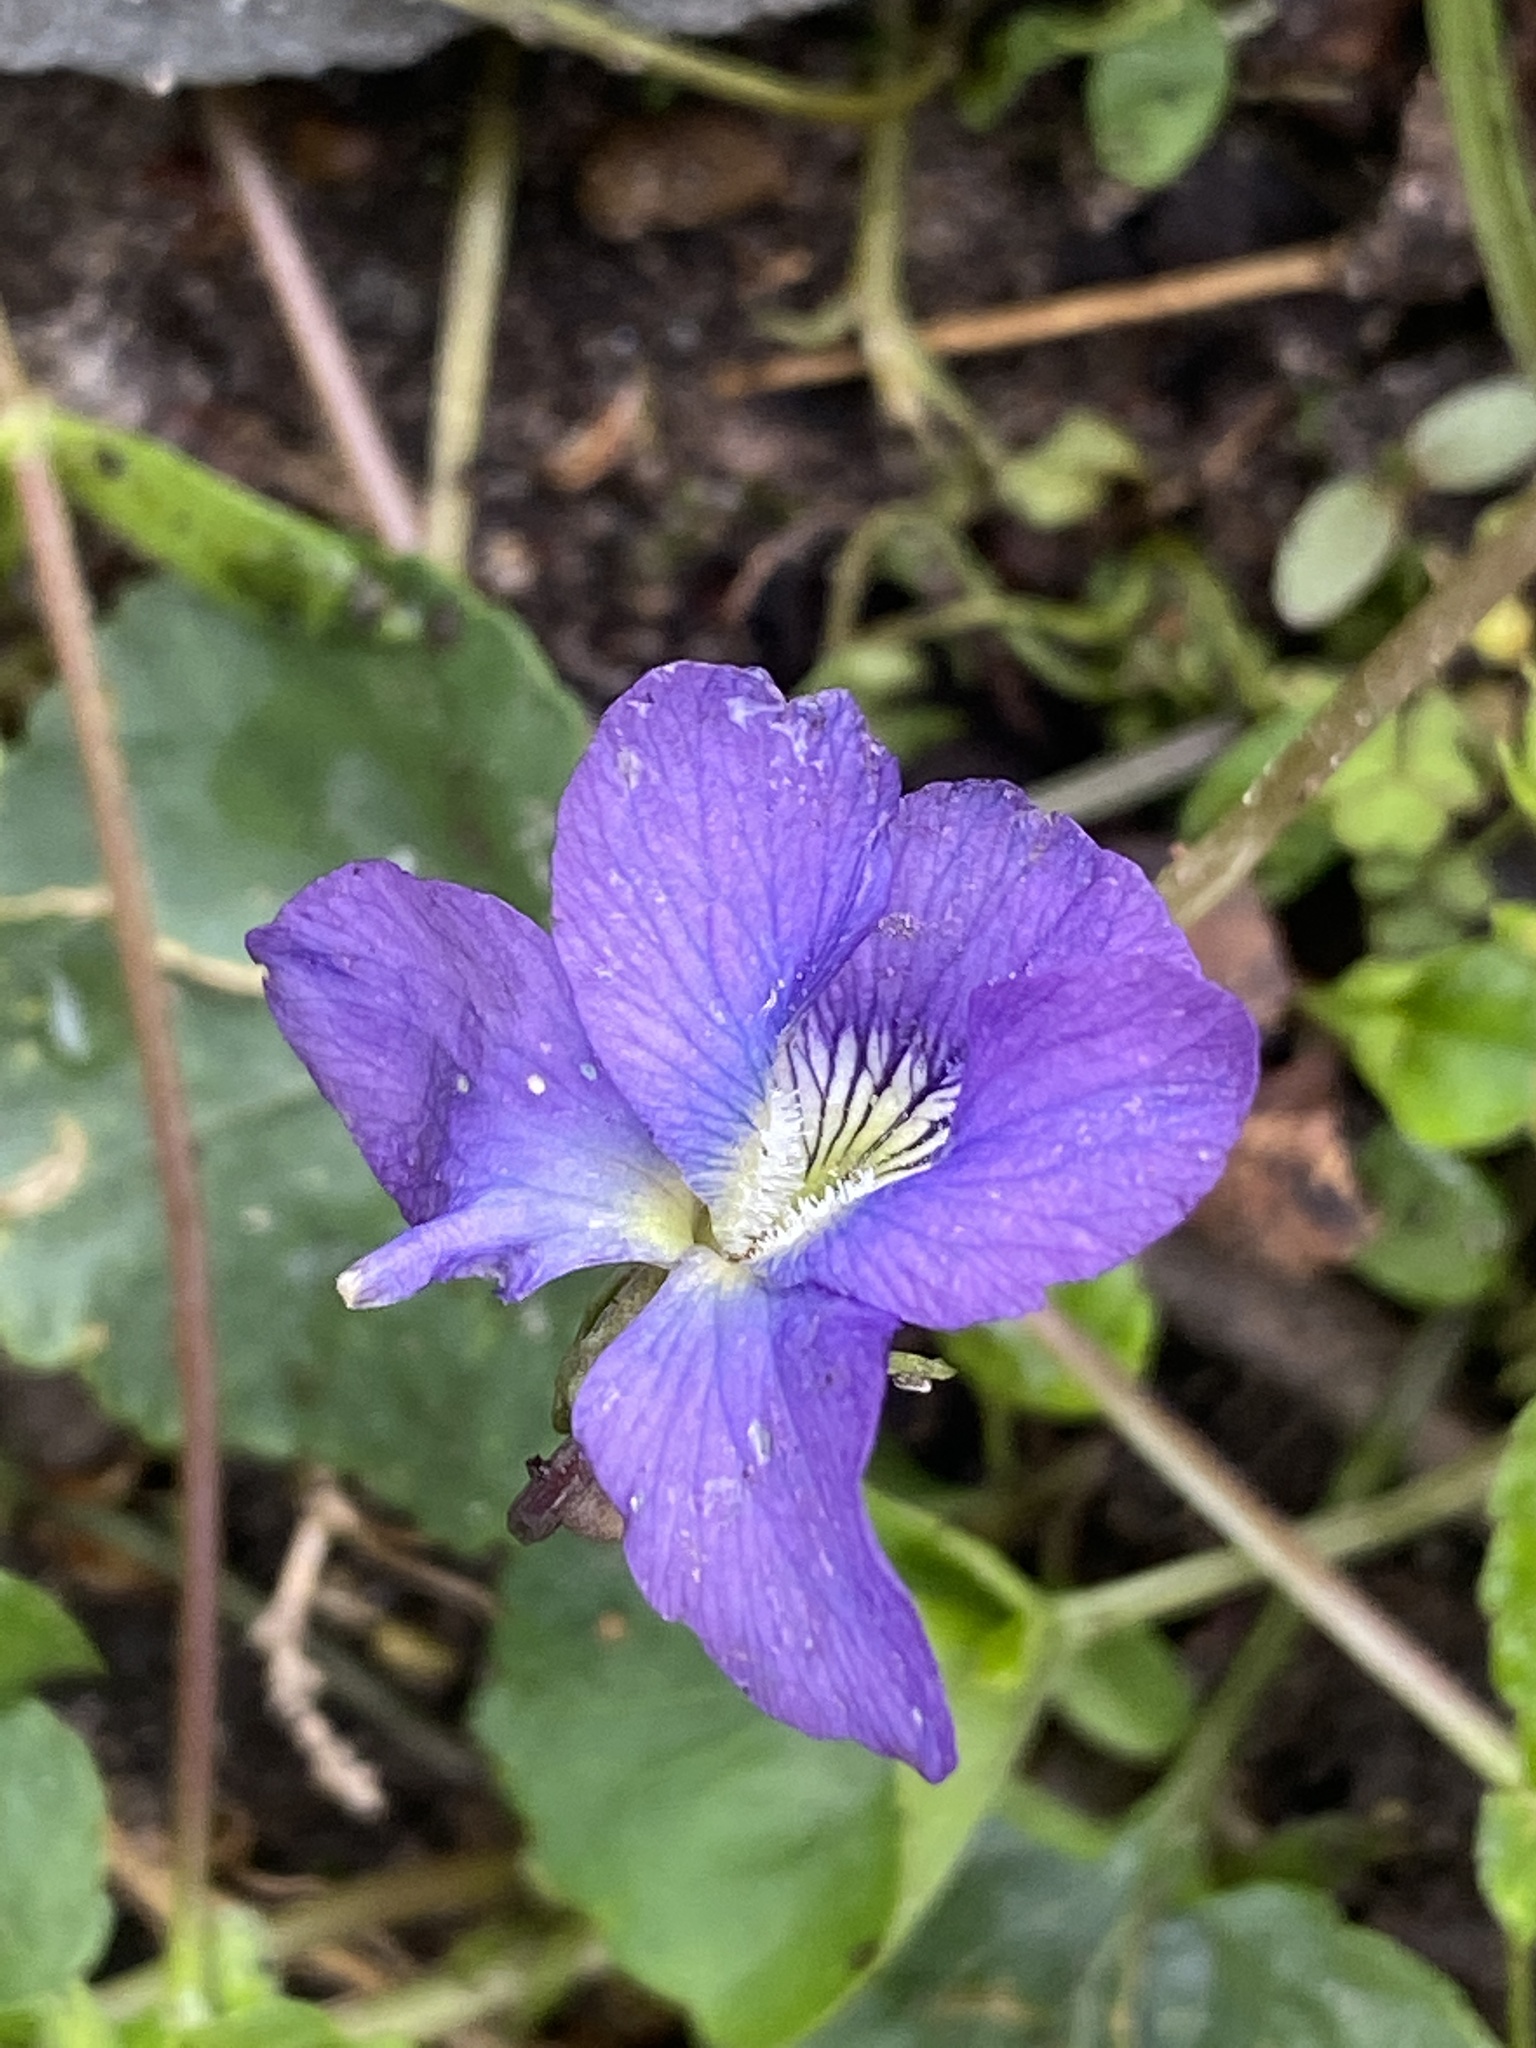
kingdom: Plantae
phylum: Tracheophyta
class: Magnoliopsida
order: Malpighiales
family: Violaceae
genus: Viola
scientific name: Viola sororia
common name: Dooryard violet
